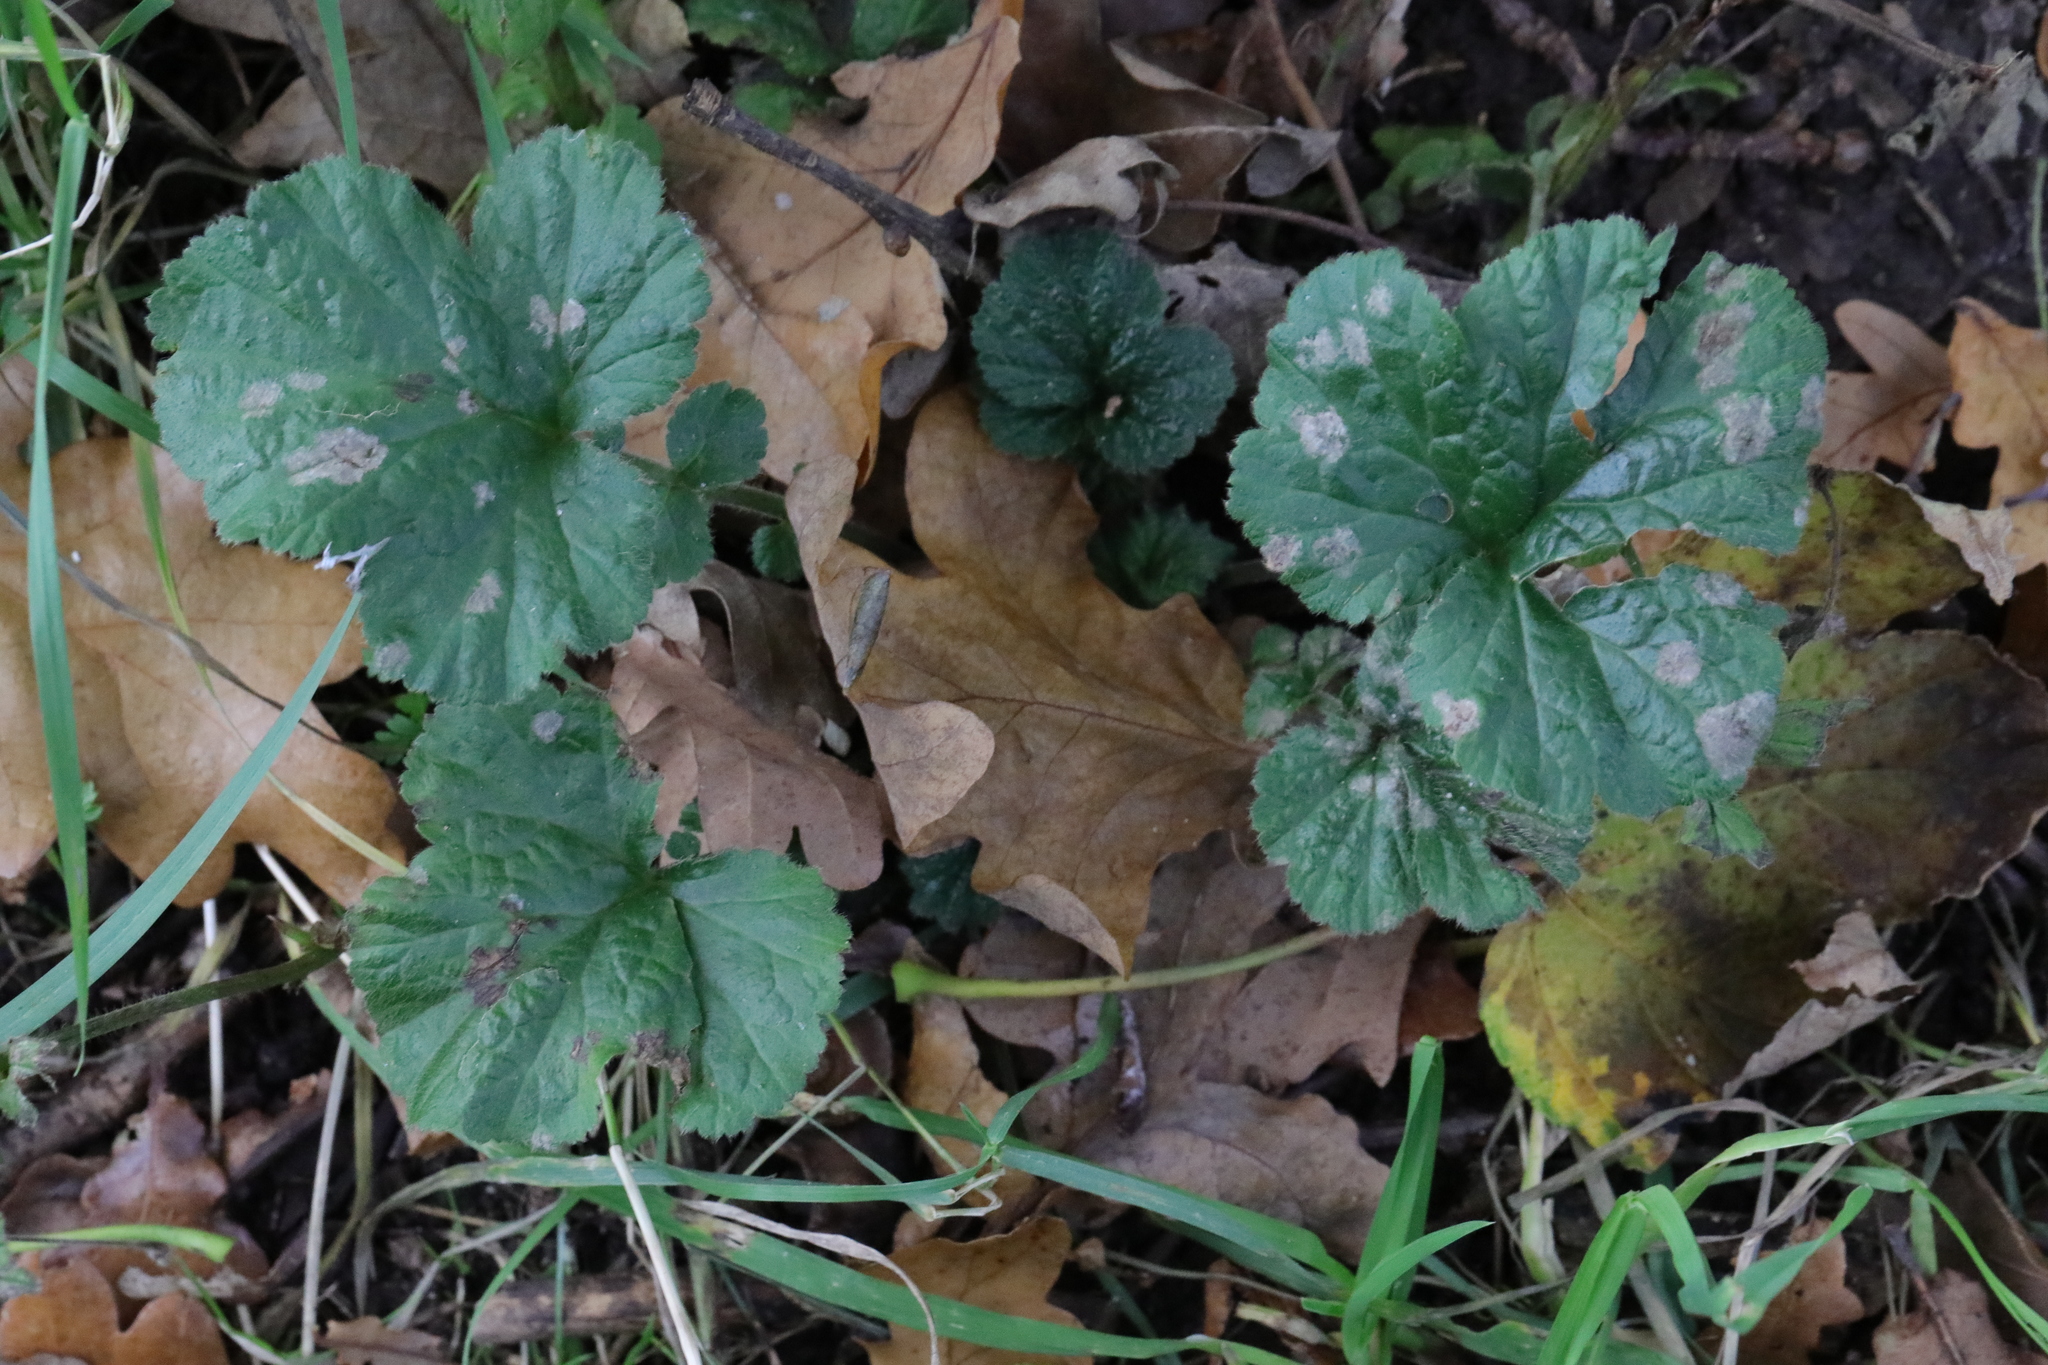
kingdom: Plantae
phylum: Tracheophyta
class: Magnoliopsida
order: Rosales
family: Rosaceae
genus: Geum
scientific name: Geum urbanum
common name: Wood avens
